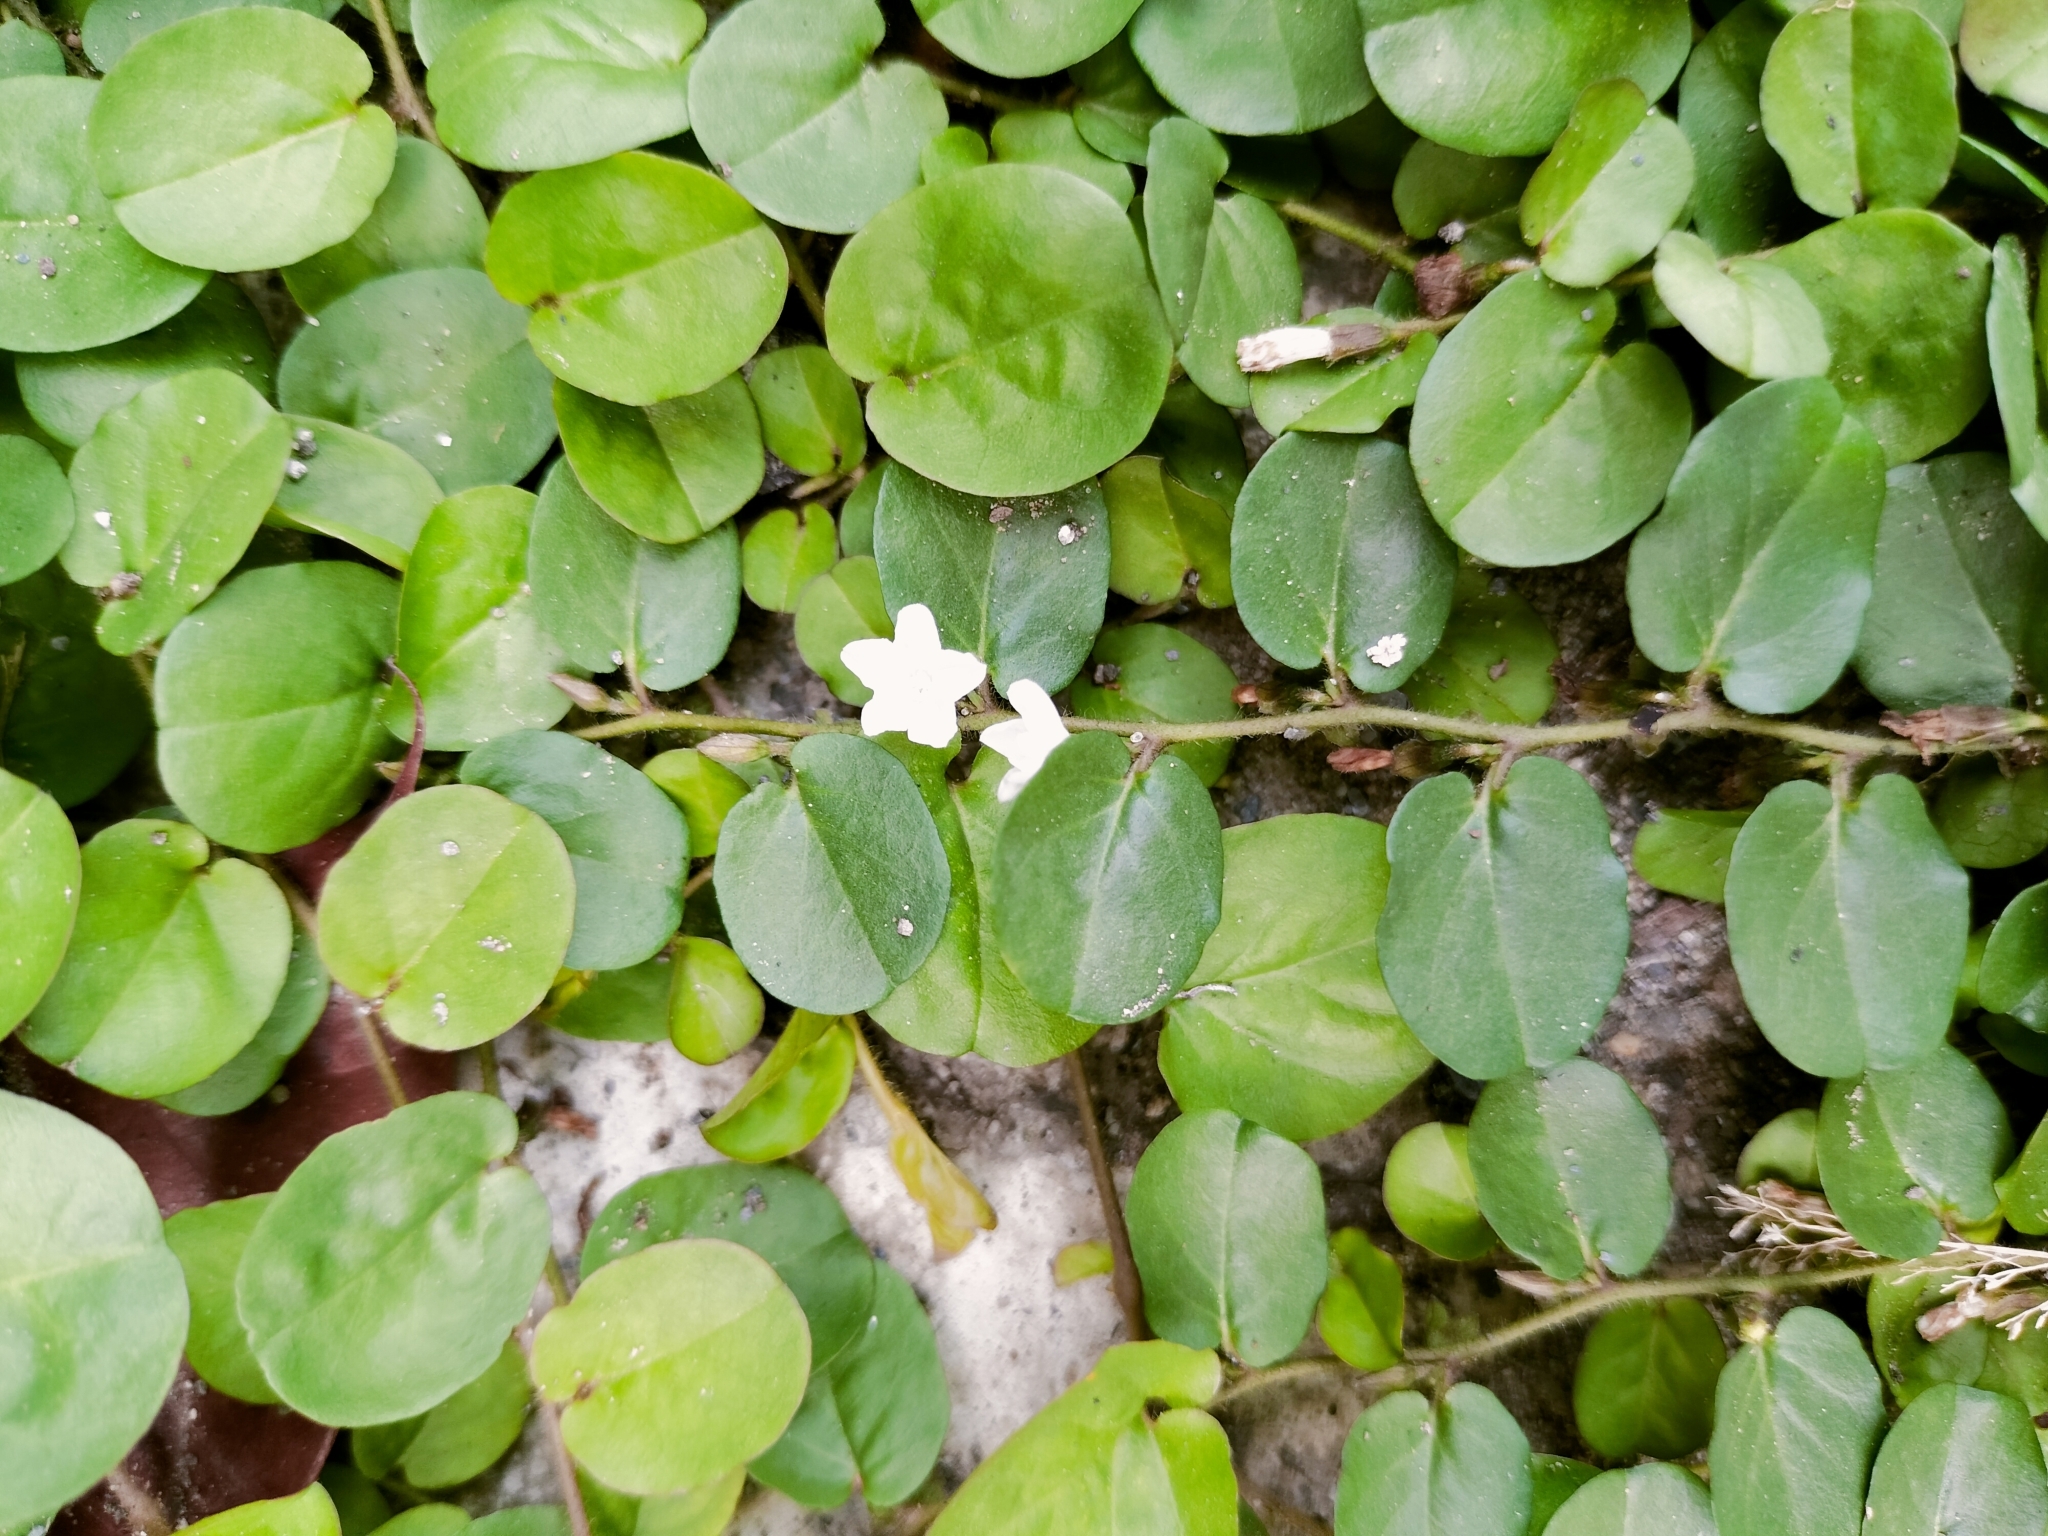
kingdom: Plantae
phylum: Tracheophyta
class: Magnoliopsida
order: Solanales
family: Convolvulaceae
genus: Evolvulus
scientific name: Evolvulus nummularius
